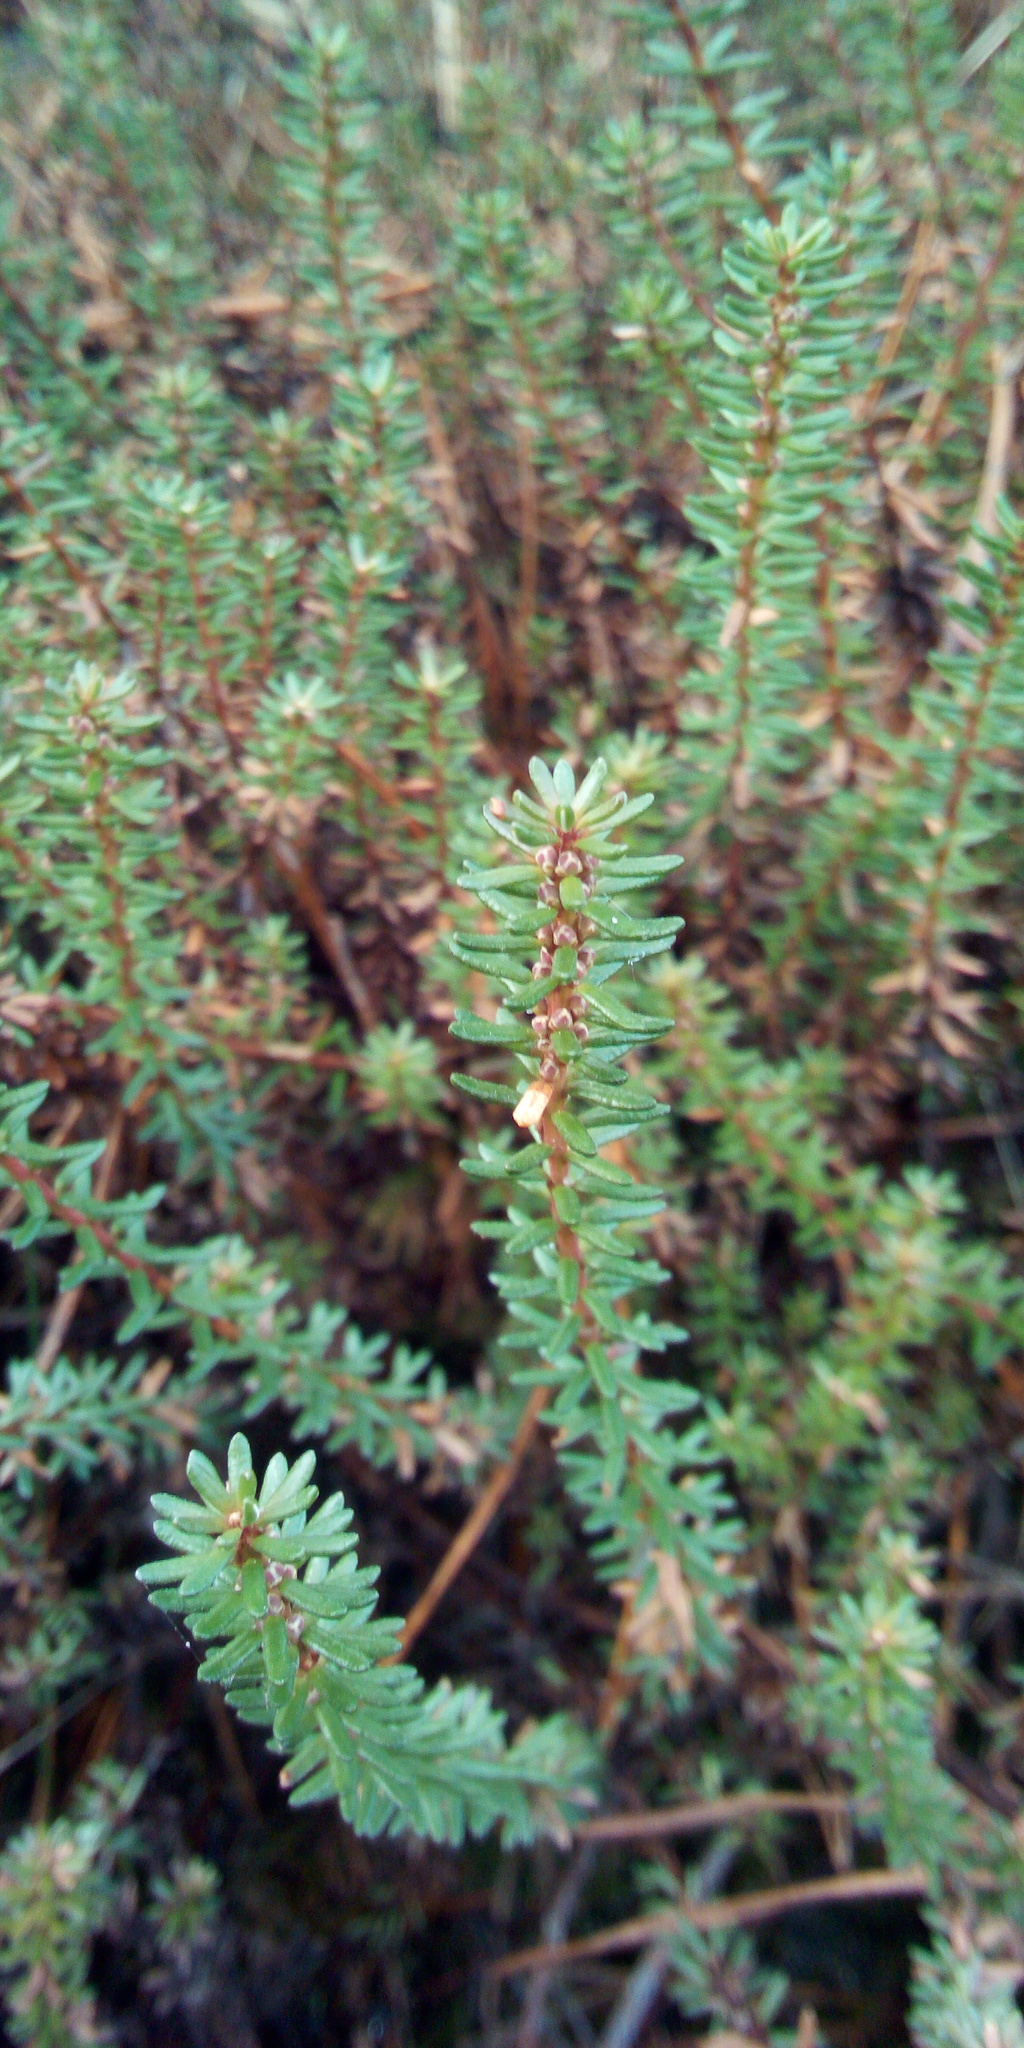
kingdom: Plantae
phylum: Tracheophyta
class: Magnoliopsida
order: Ericales
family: Ericaceae
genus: Empetrum
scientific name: Empetrum nigrum
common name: Black crowberry
